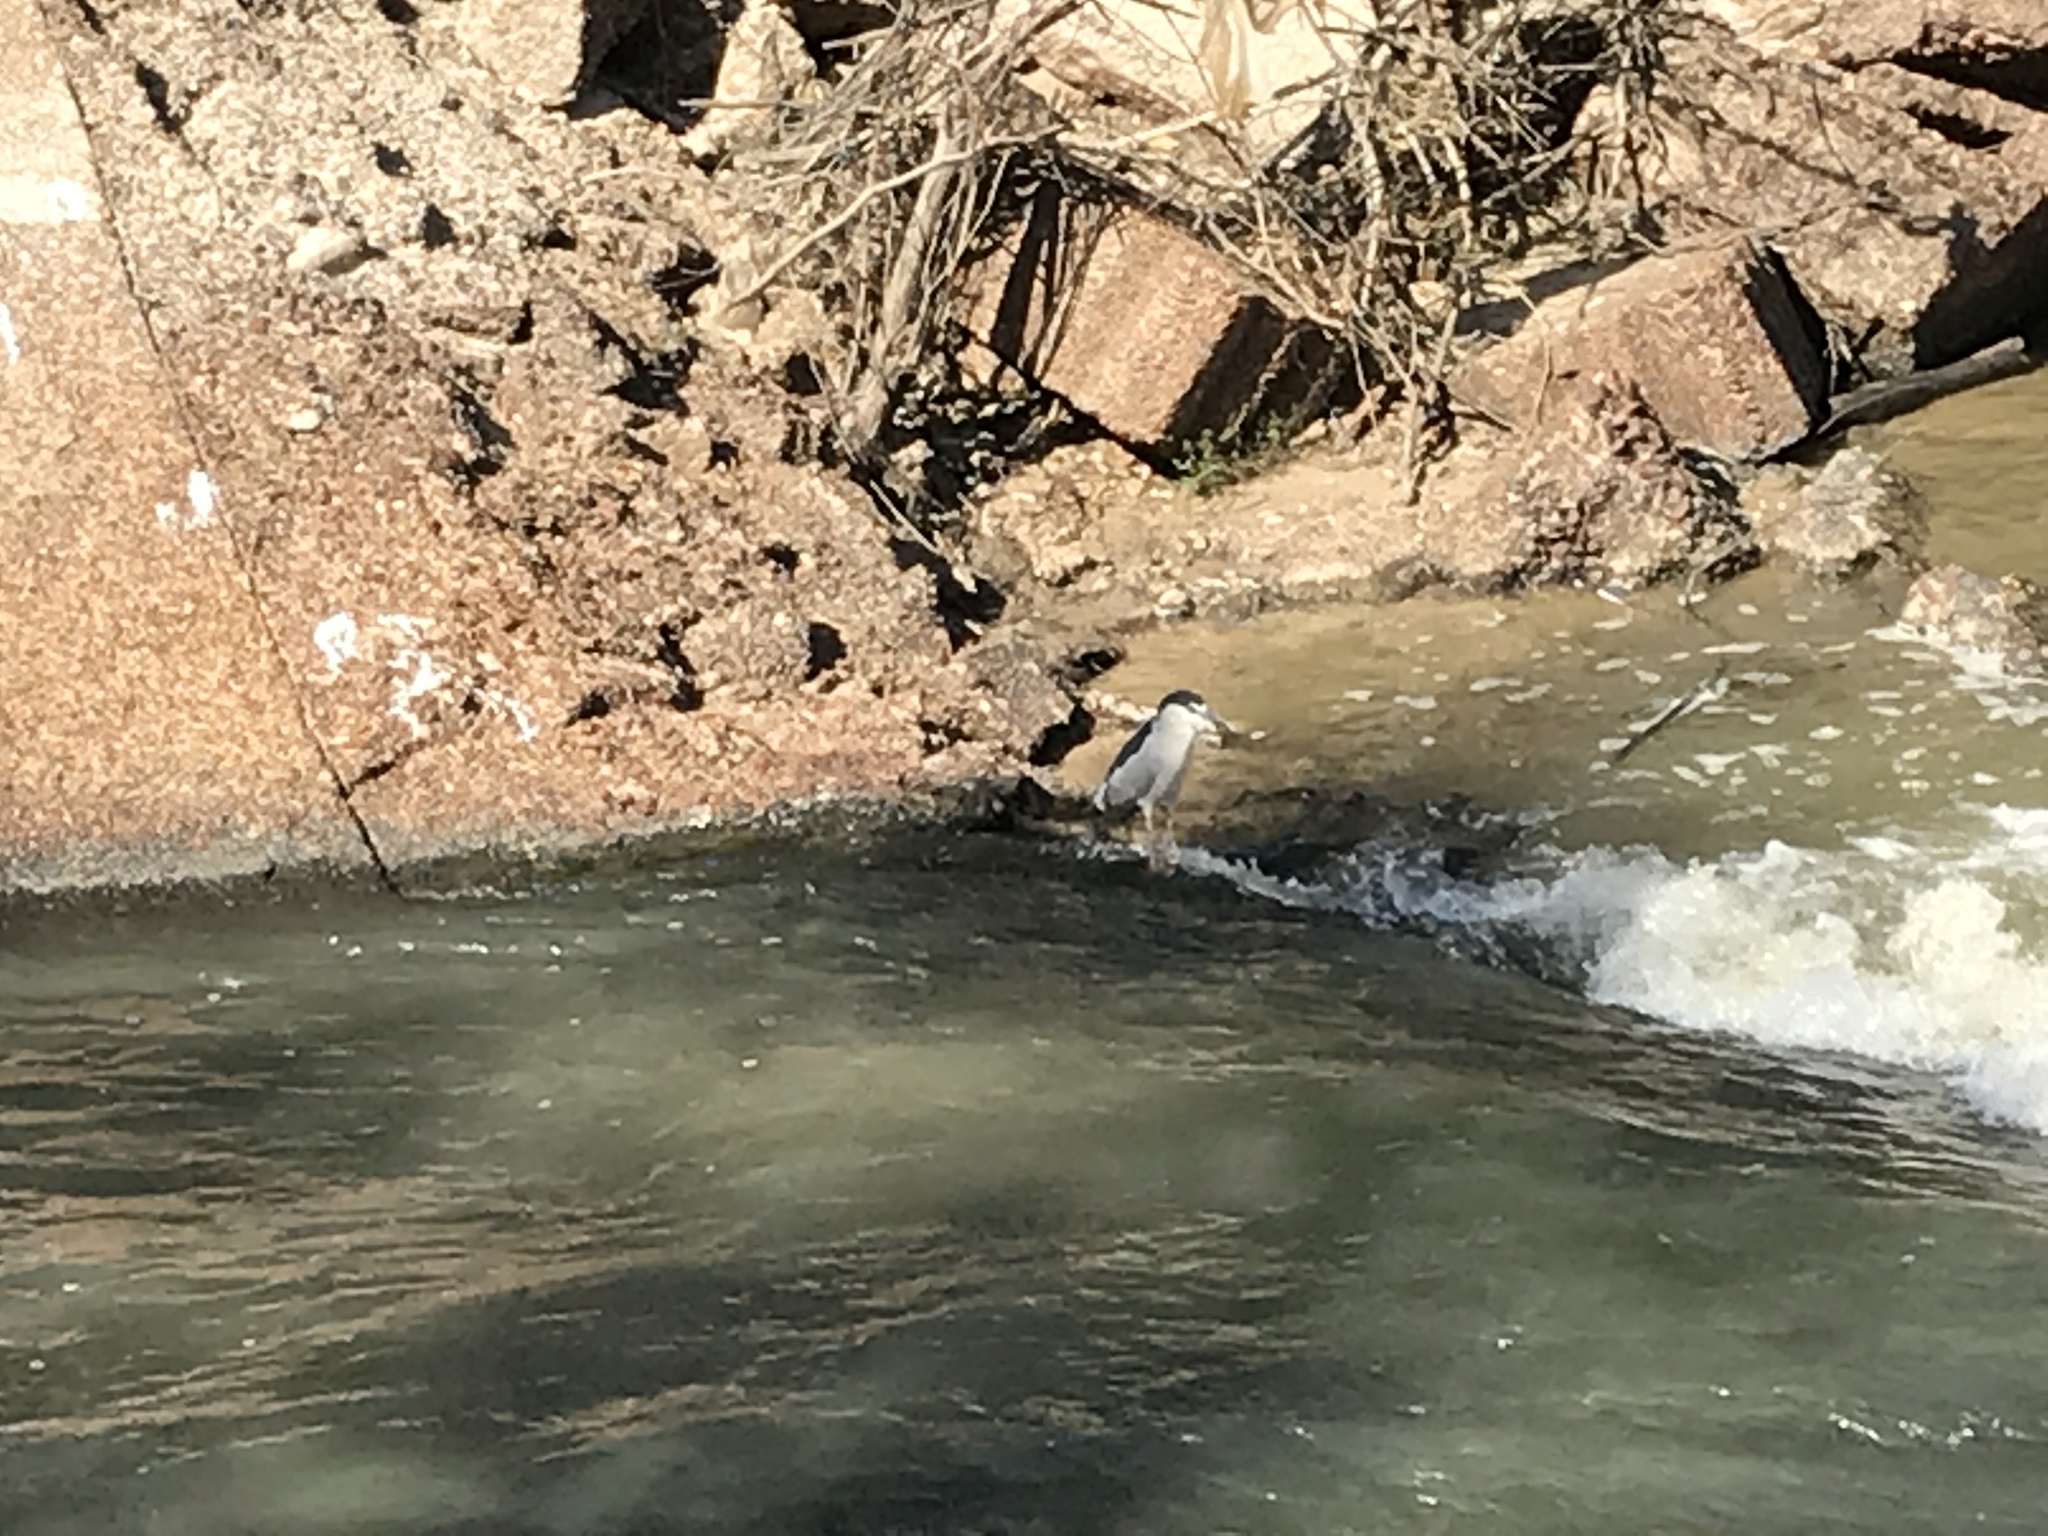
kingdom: Animalia
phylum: Chordata
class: Aves
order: Pelecaniformes
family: Ardeidae
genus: Nycticorax
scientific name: Nycticorax nycticorax
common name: Black-crowned night heron
